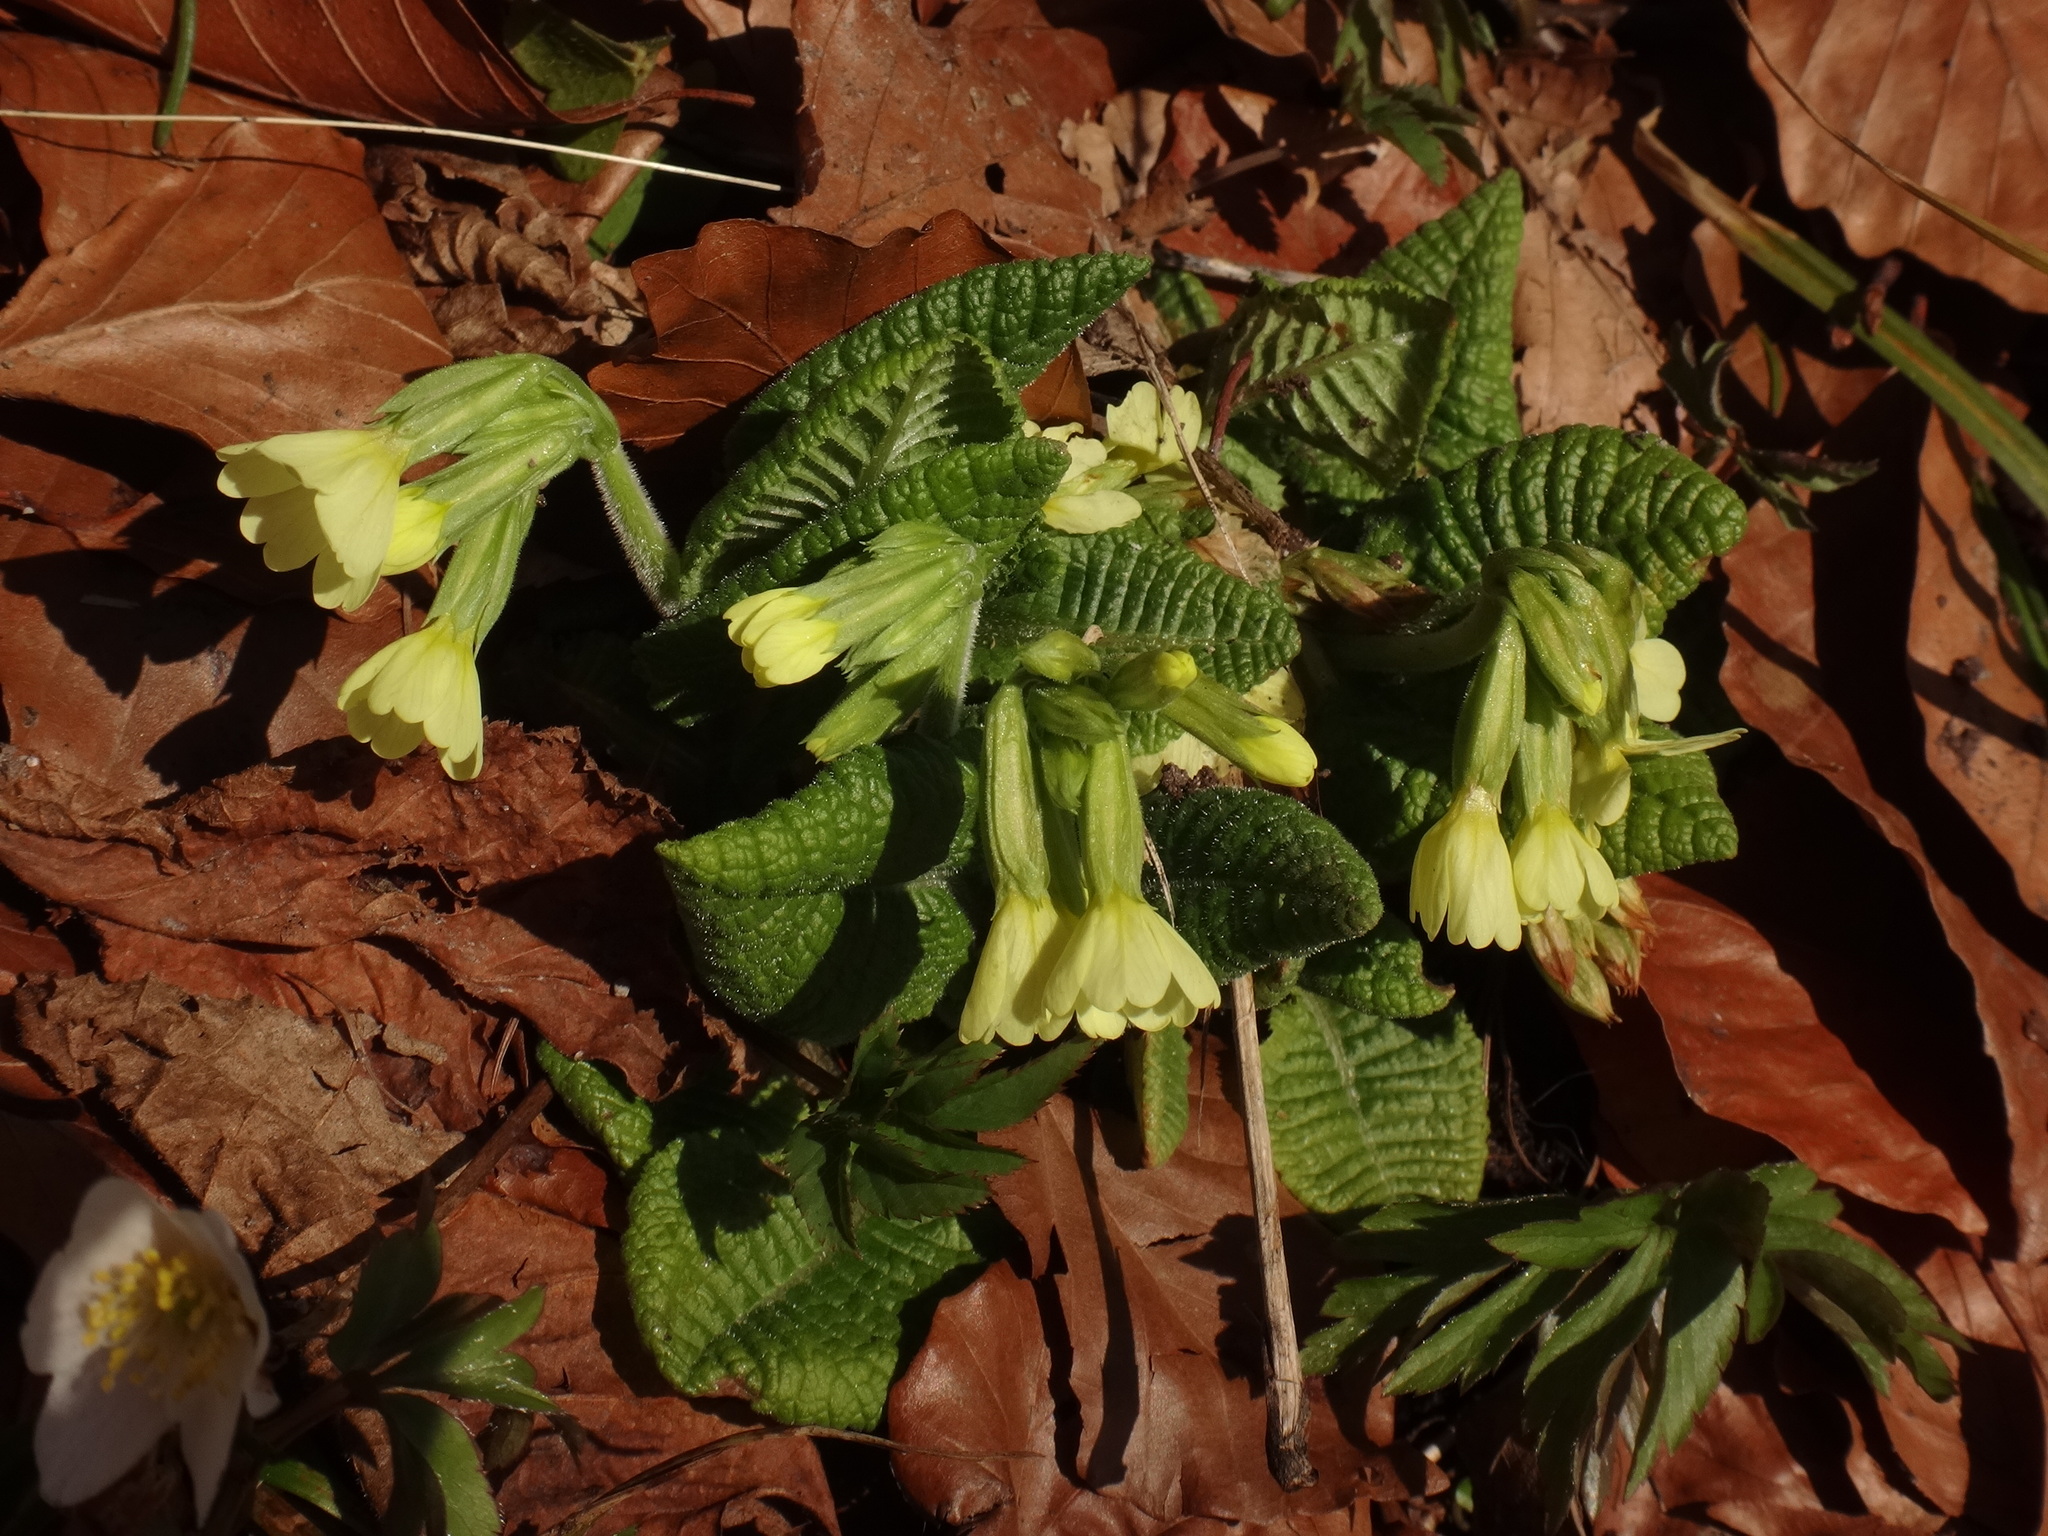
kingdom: Plantae
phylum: Tracheophyta
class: Magnoliopsida
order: Ericales
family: Primulaceae
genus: Primula
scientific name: Primula elatior
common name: Oxlip
